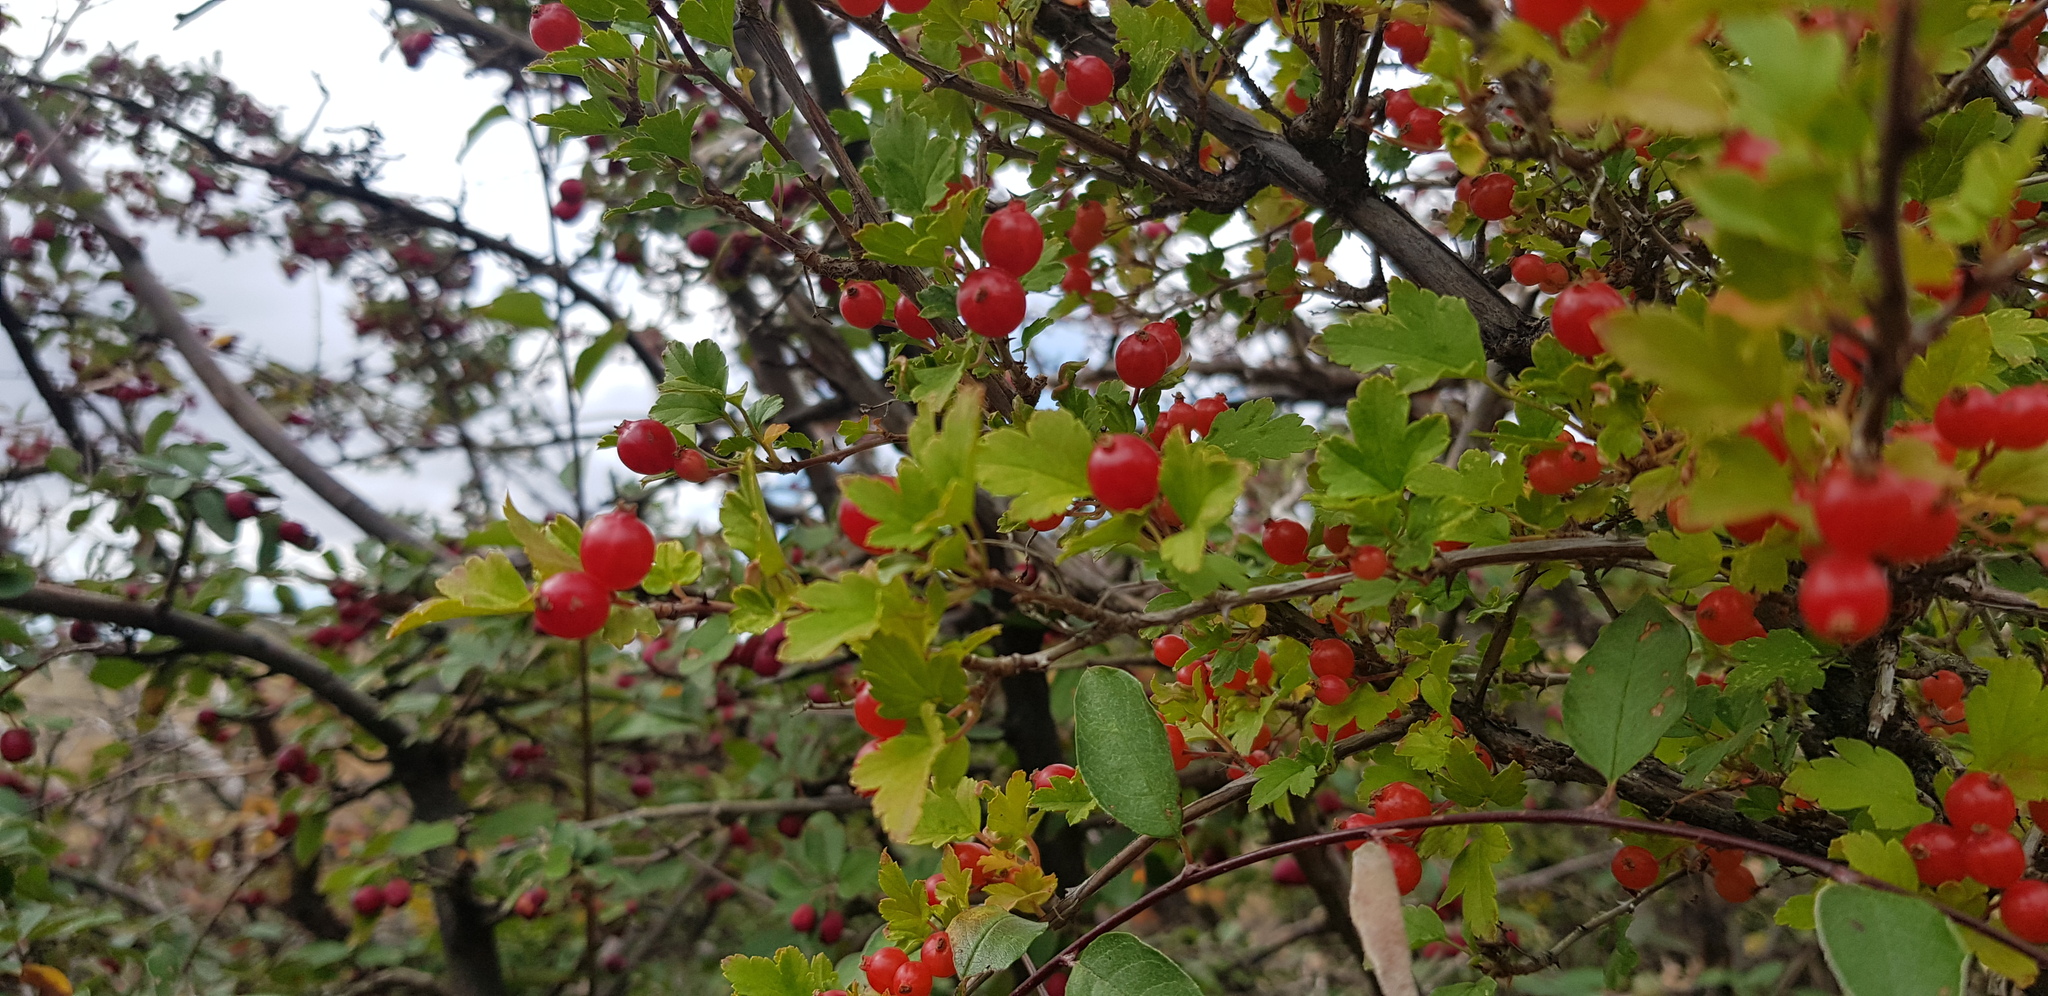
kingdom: Plantae
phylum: Tracheophyta
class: Magnoliopsida
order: Saxifragales
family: Grossulariaceae
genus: Ribes
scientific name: Ribes diacanthum
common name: Siberian currant
